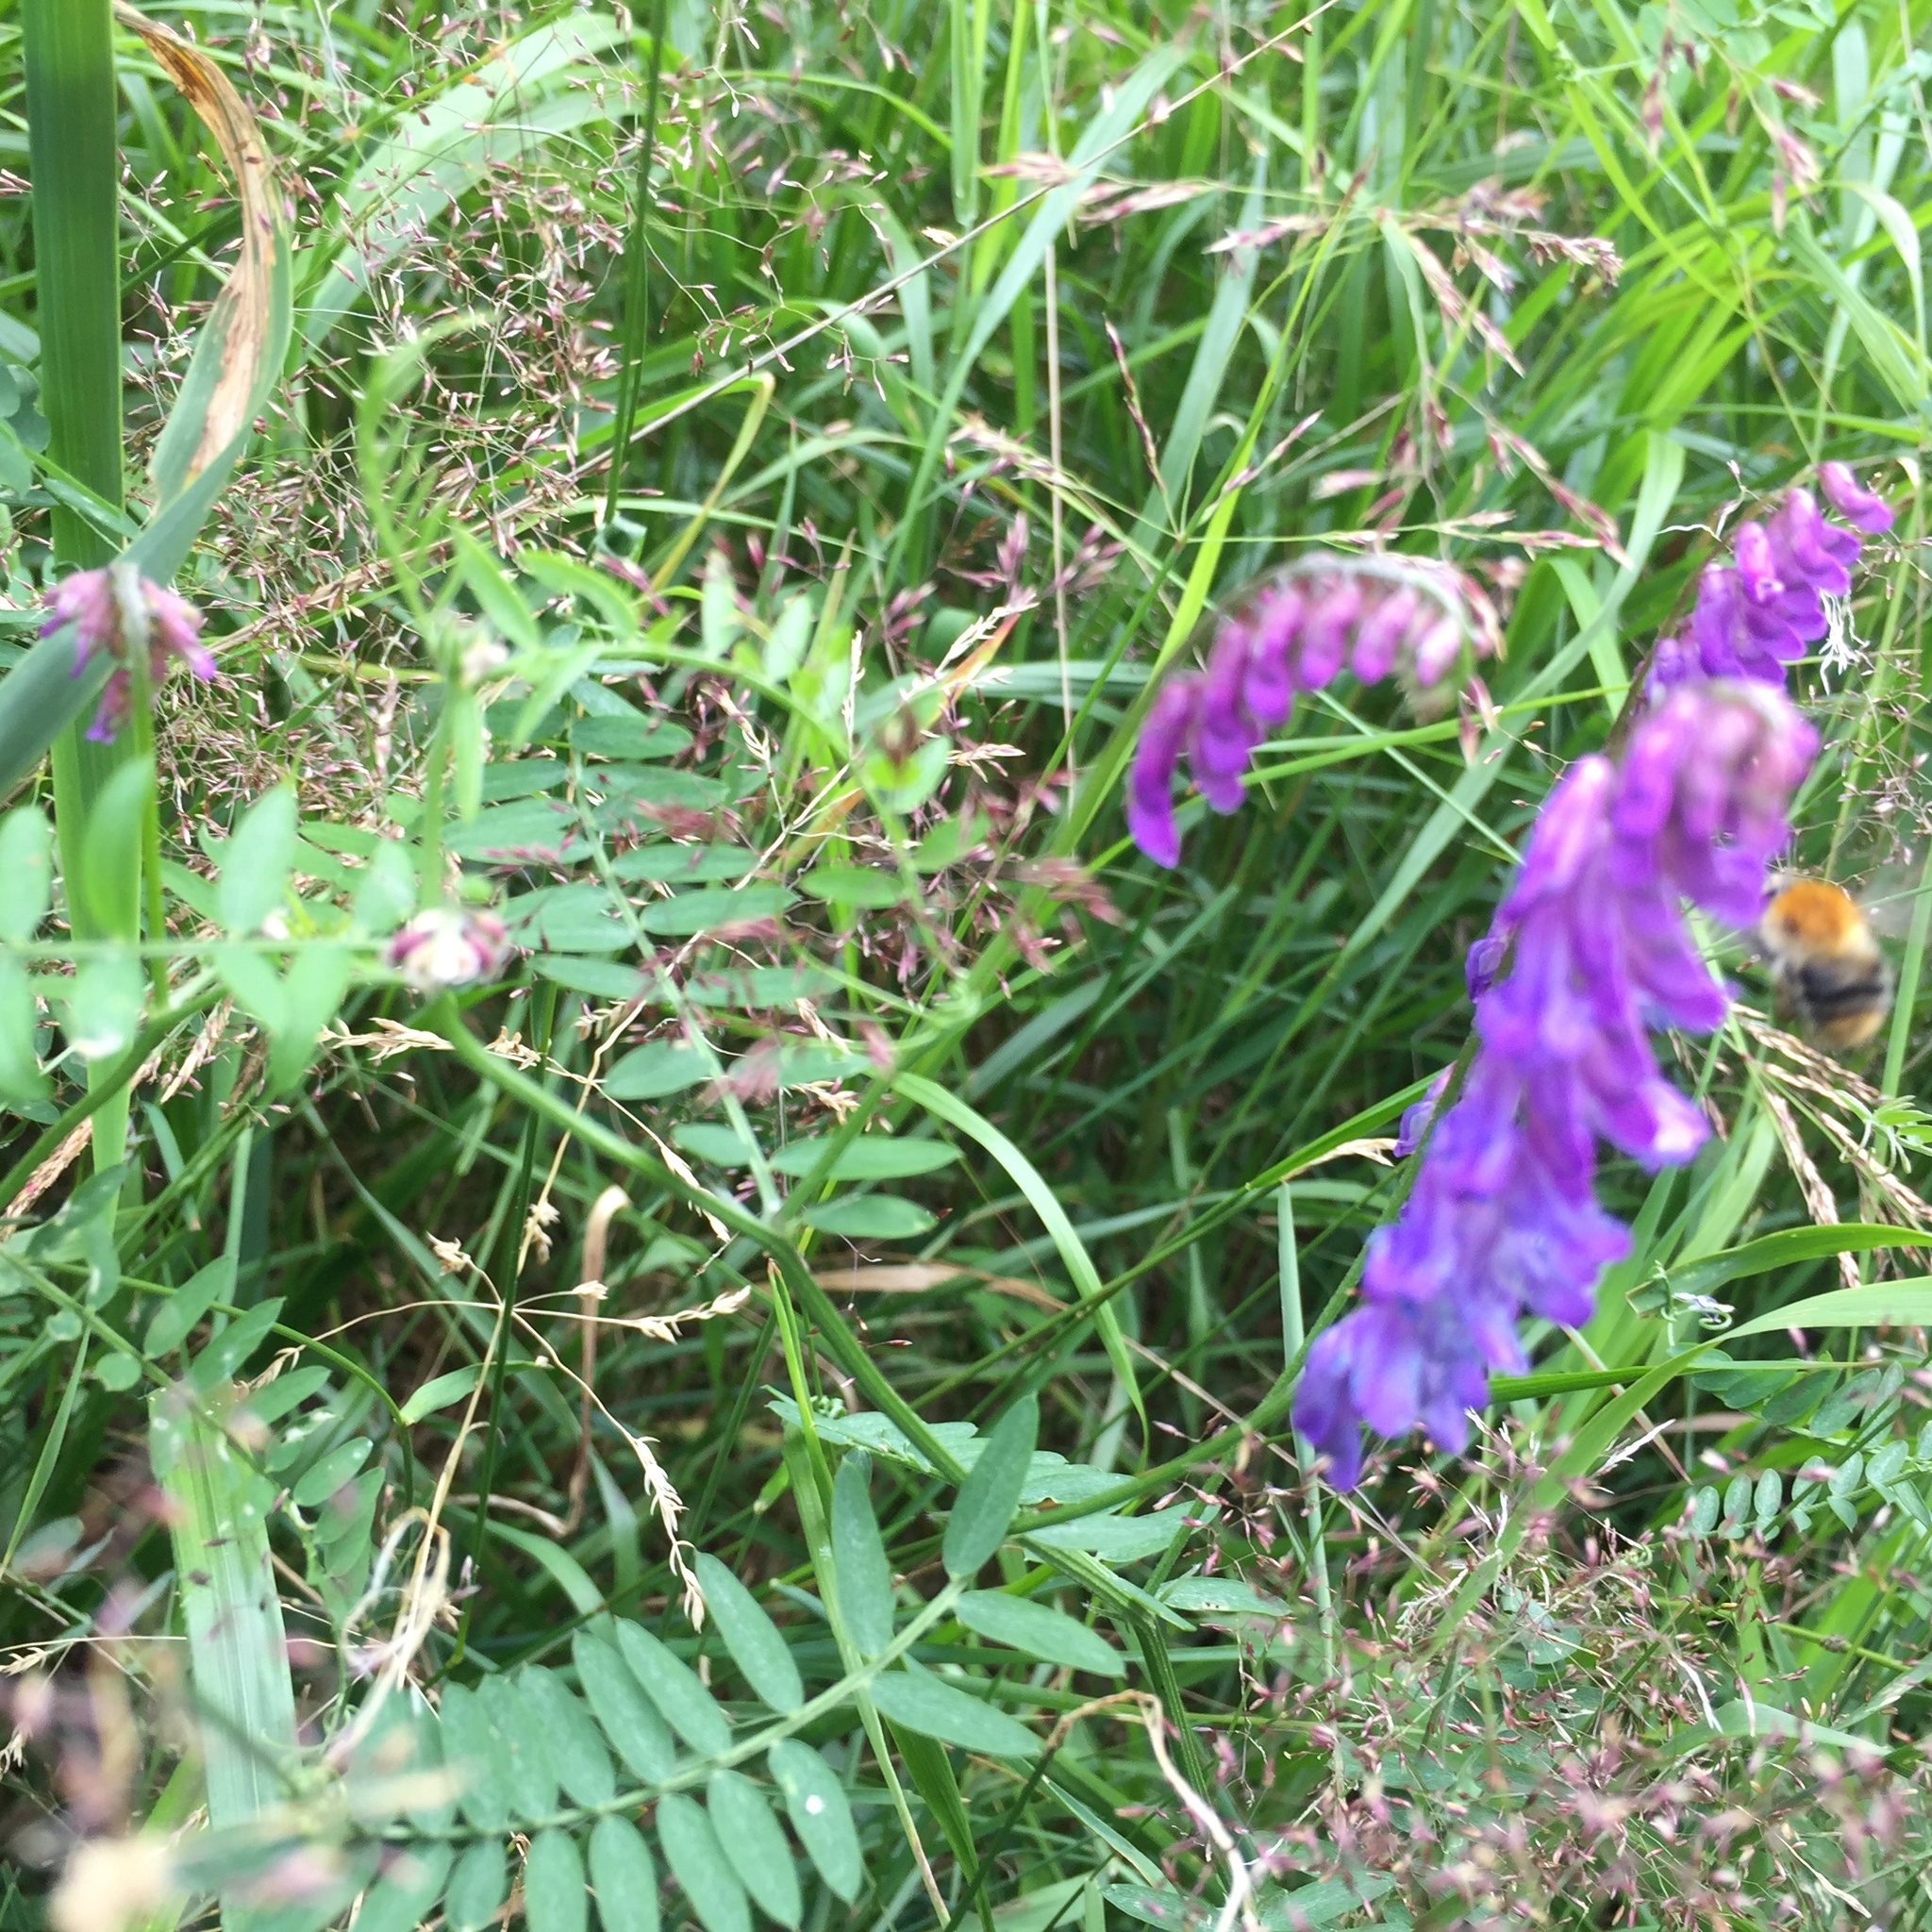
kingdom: Plantae
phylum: Tracheophyta
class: Magnoliopsida
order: Fabales
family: Fabaceae
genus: Vicia
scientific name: Vicia cracca
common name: Bird vetch
